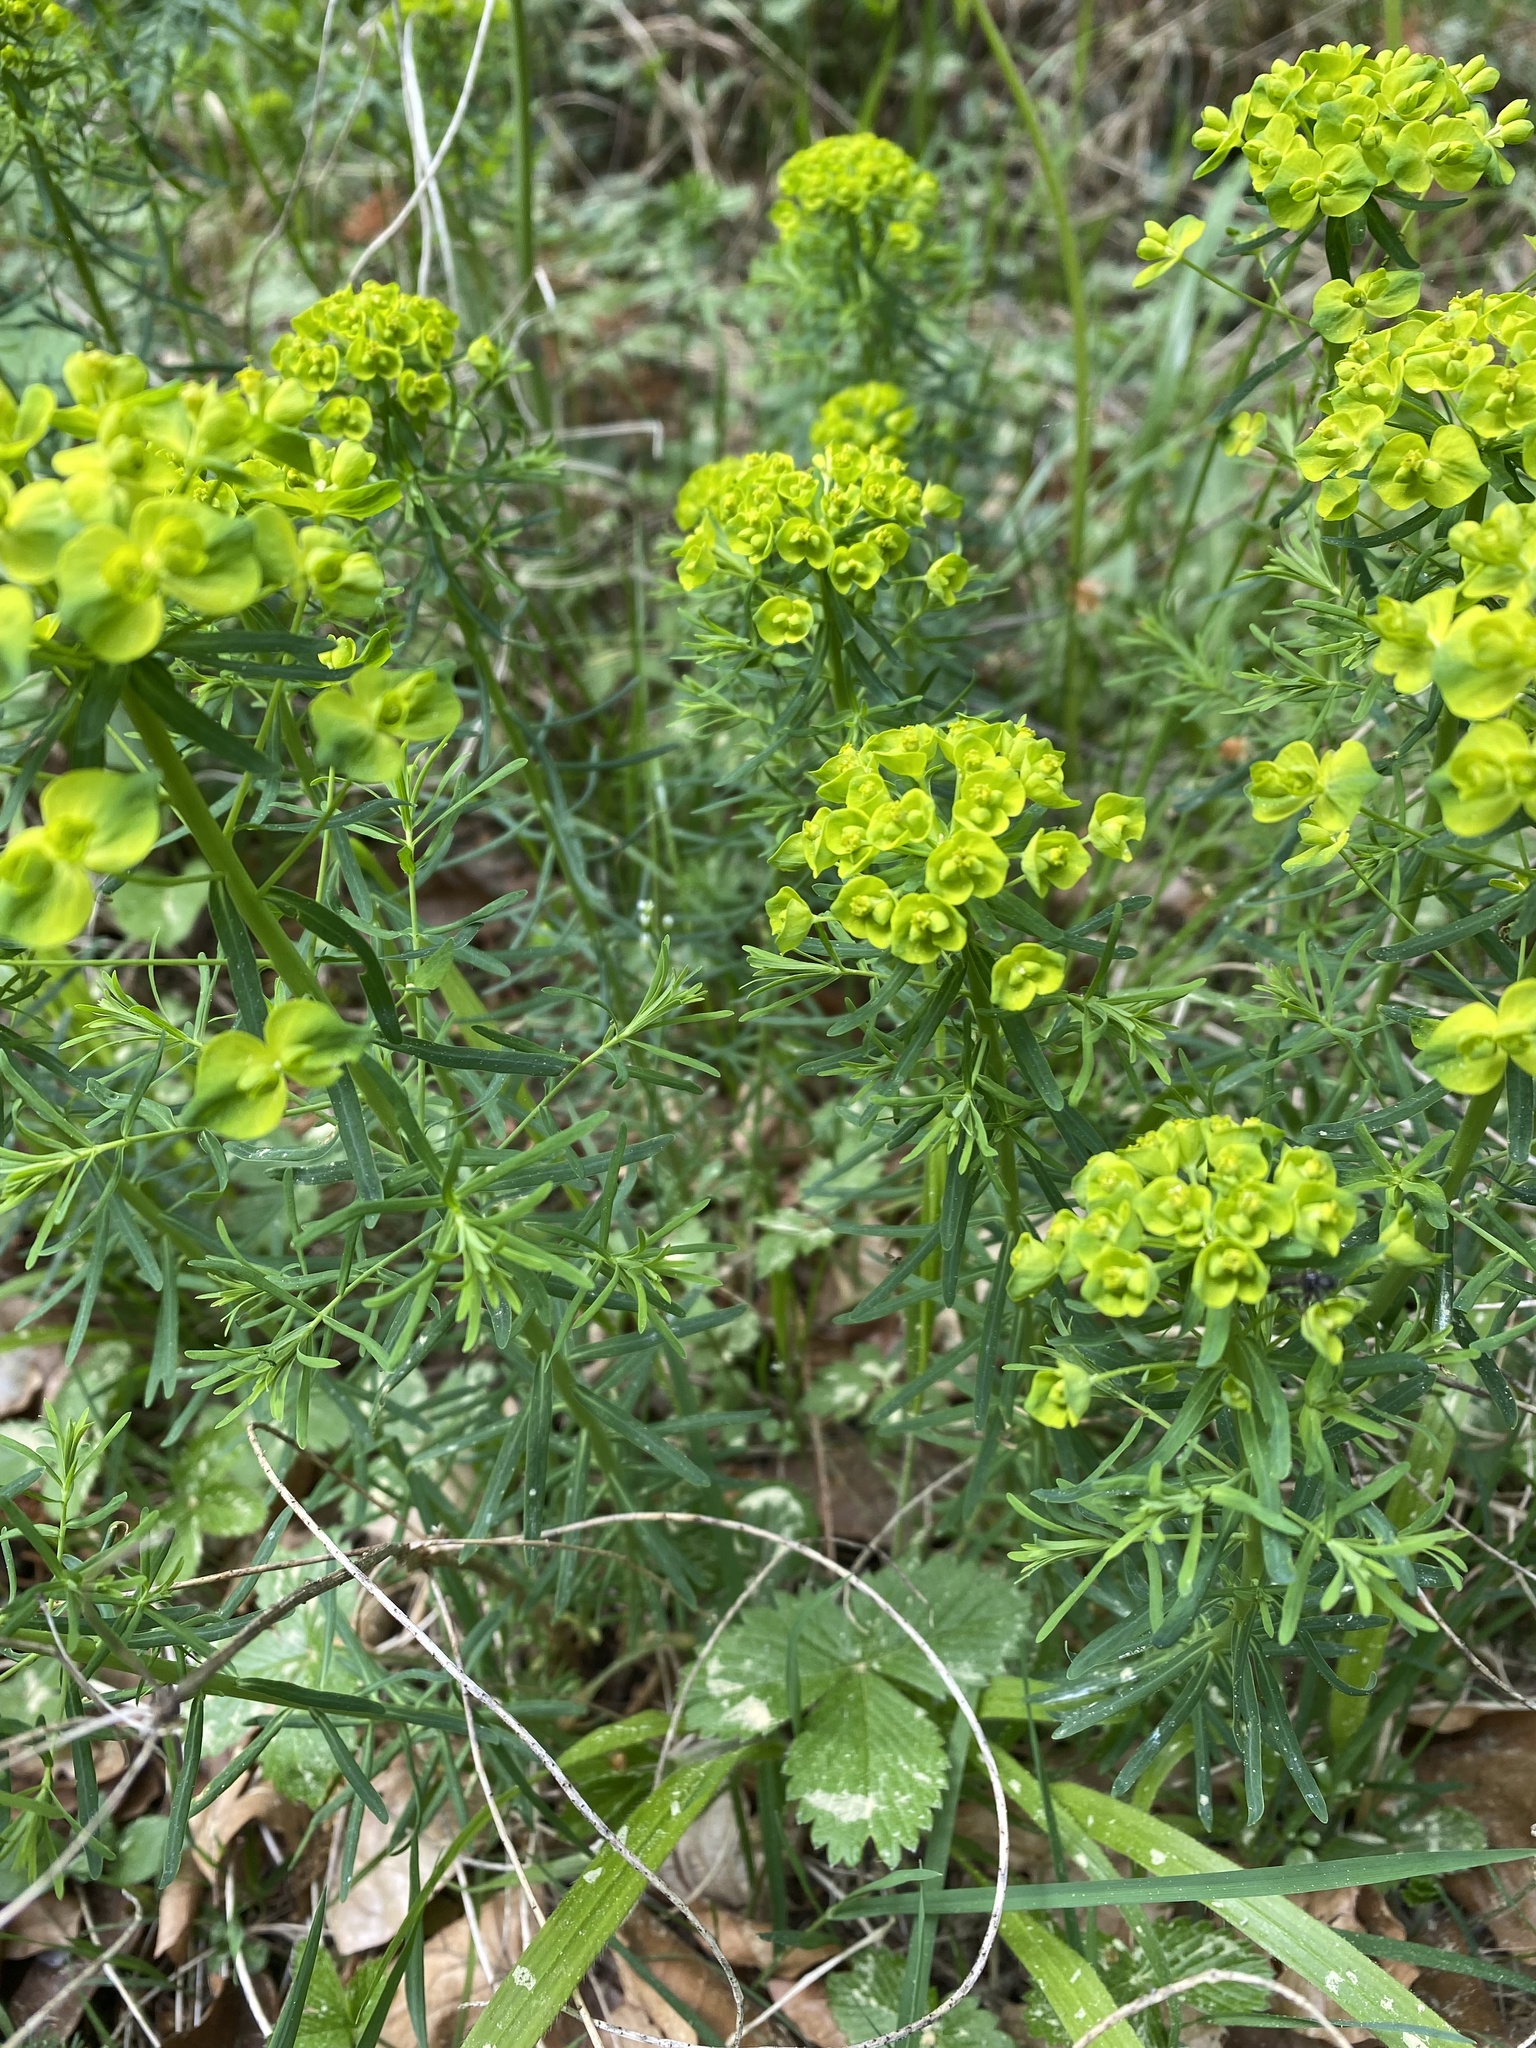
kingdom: Plantae
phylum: Tracheophyta
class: Magnoliopsida
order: Malpighiales
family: Euphorbiaceae
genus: Euphorbia
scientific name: Euphorbia cyparissias
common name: Cypress spurge
